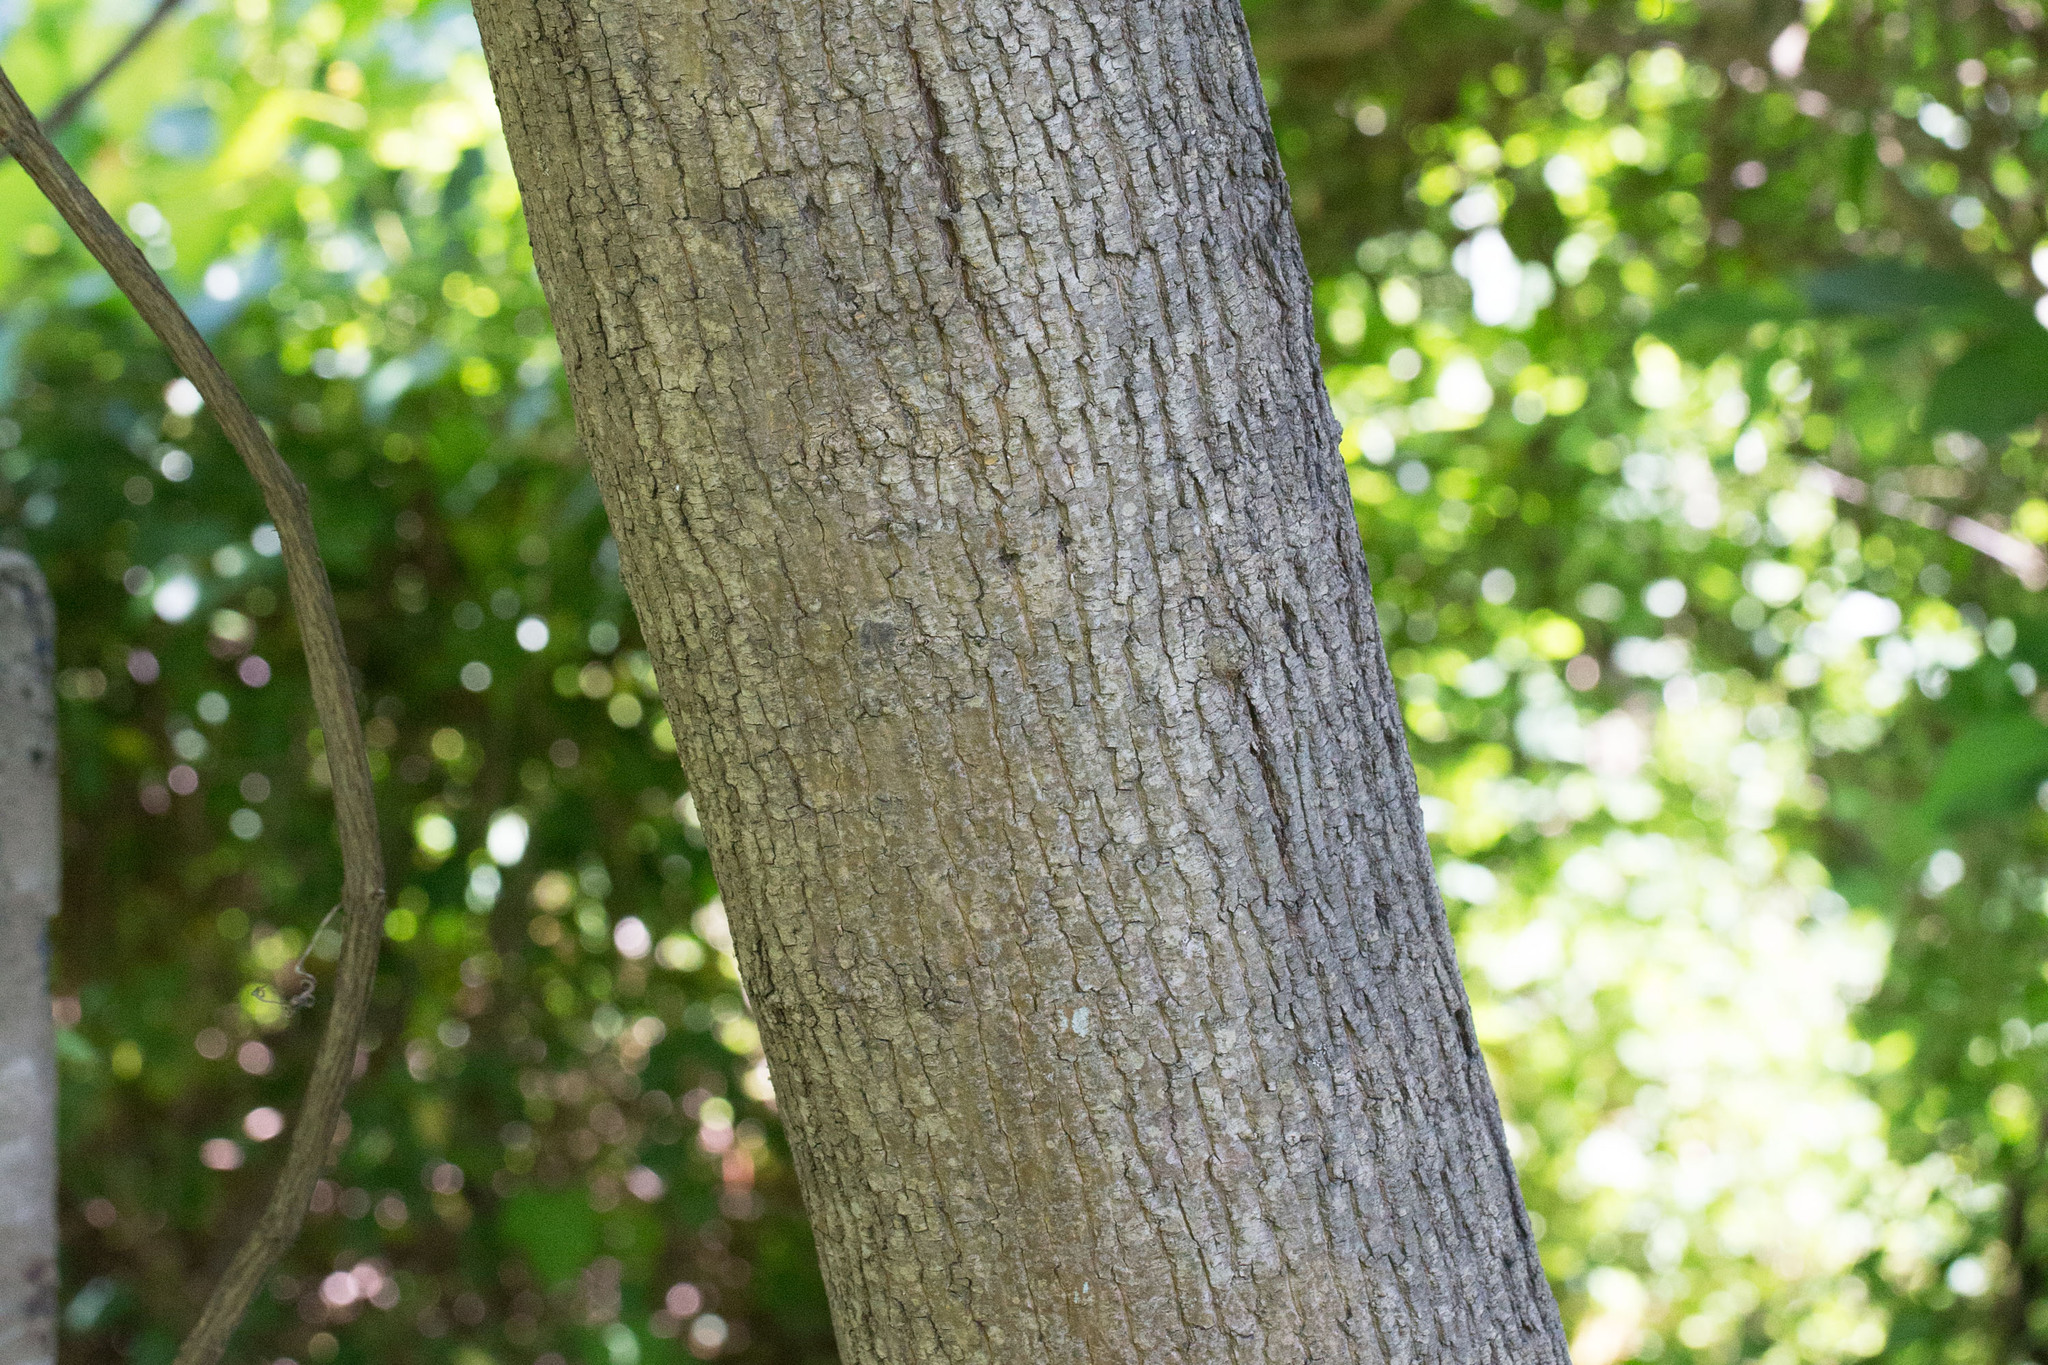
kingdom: Plantae
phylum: Tracheophyta
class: Magnoliopsida
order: Sapindales
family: Sapindaceae
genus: Acer
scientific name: Acer platanoides
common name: Norway maple
